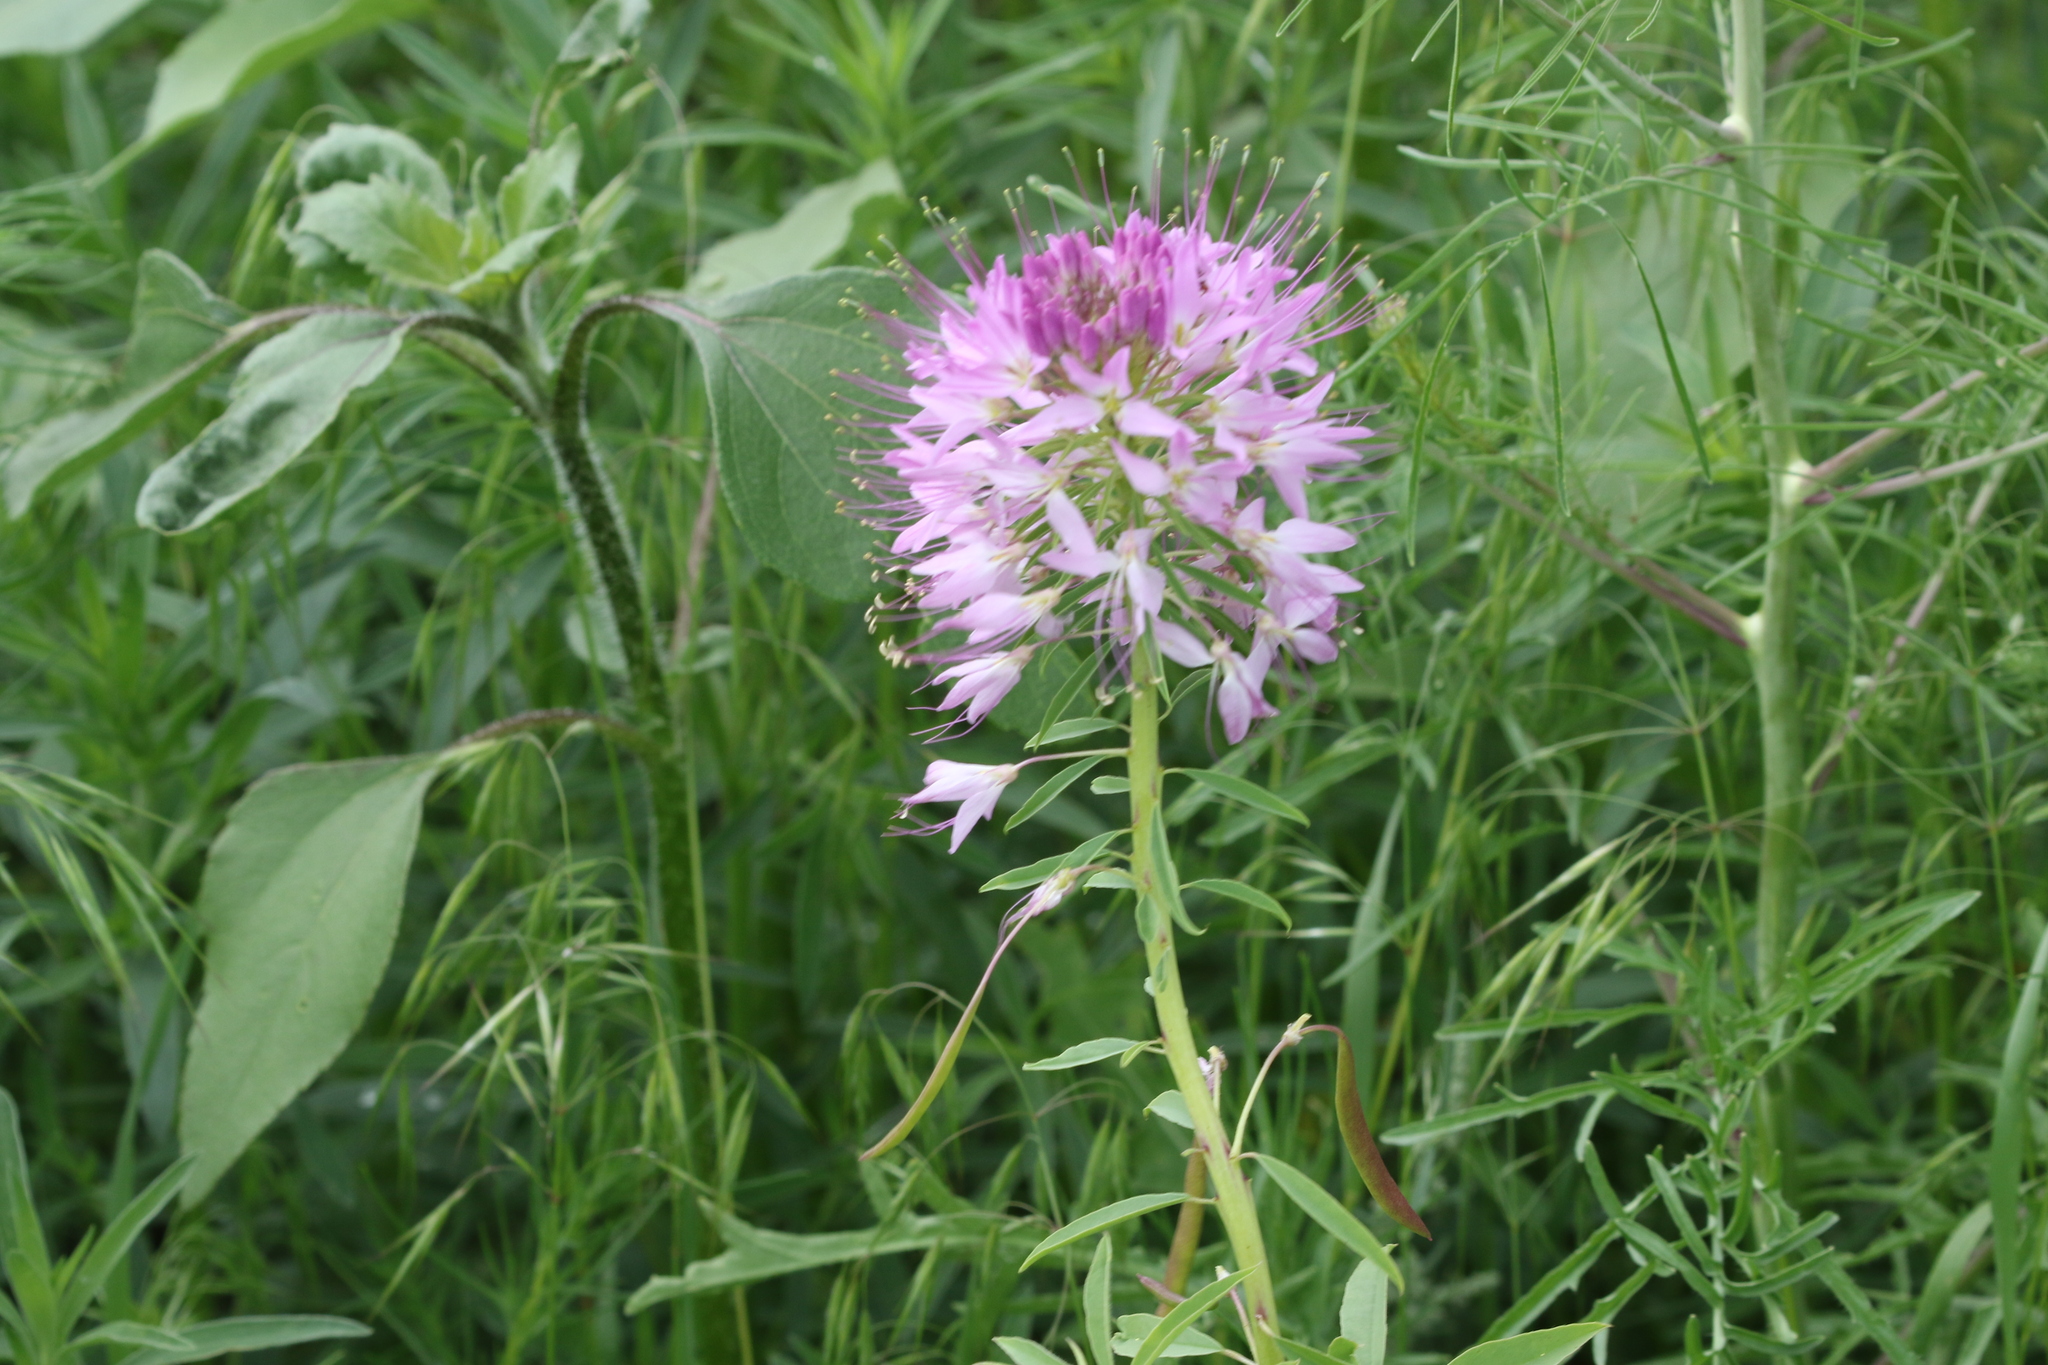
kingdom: Plantae
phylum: Tracheophyta
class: Magnoliopsida
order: Brassicales
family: Cleomaceae
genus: Cleomella
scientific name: Cleomella serrulata
